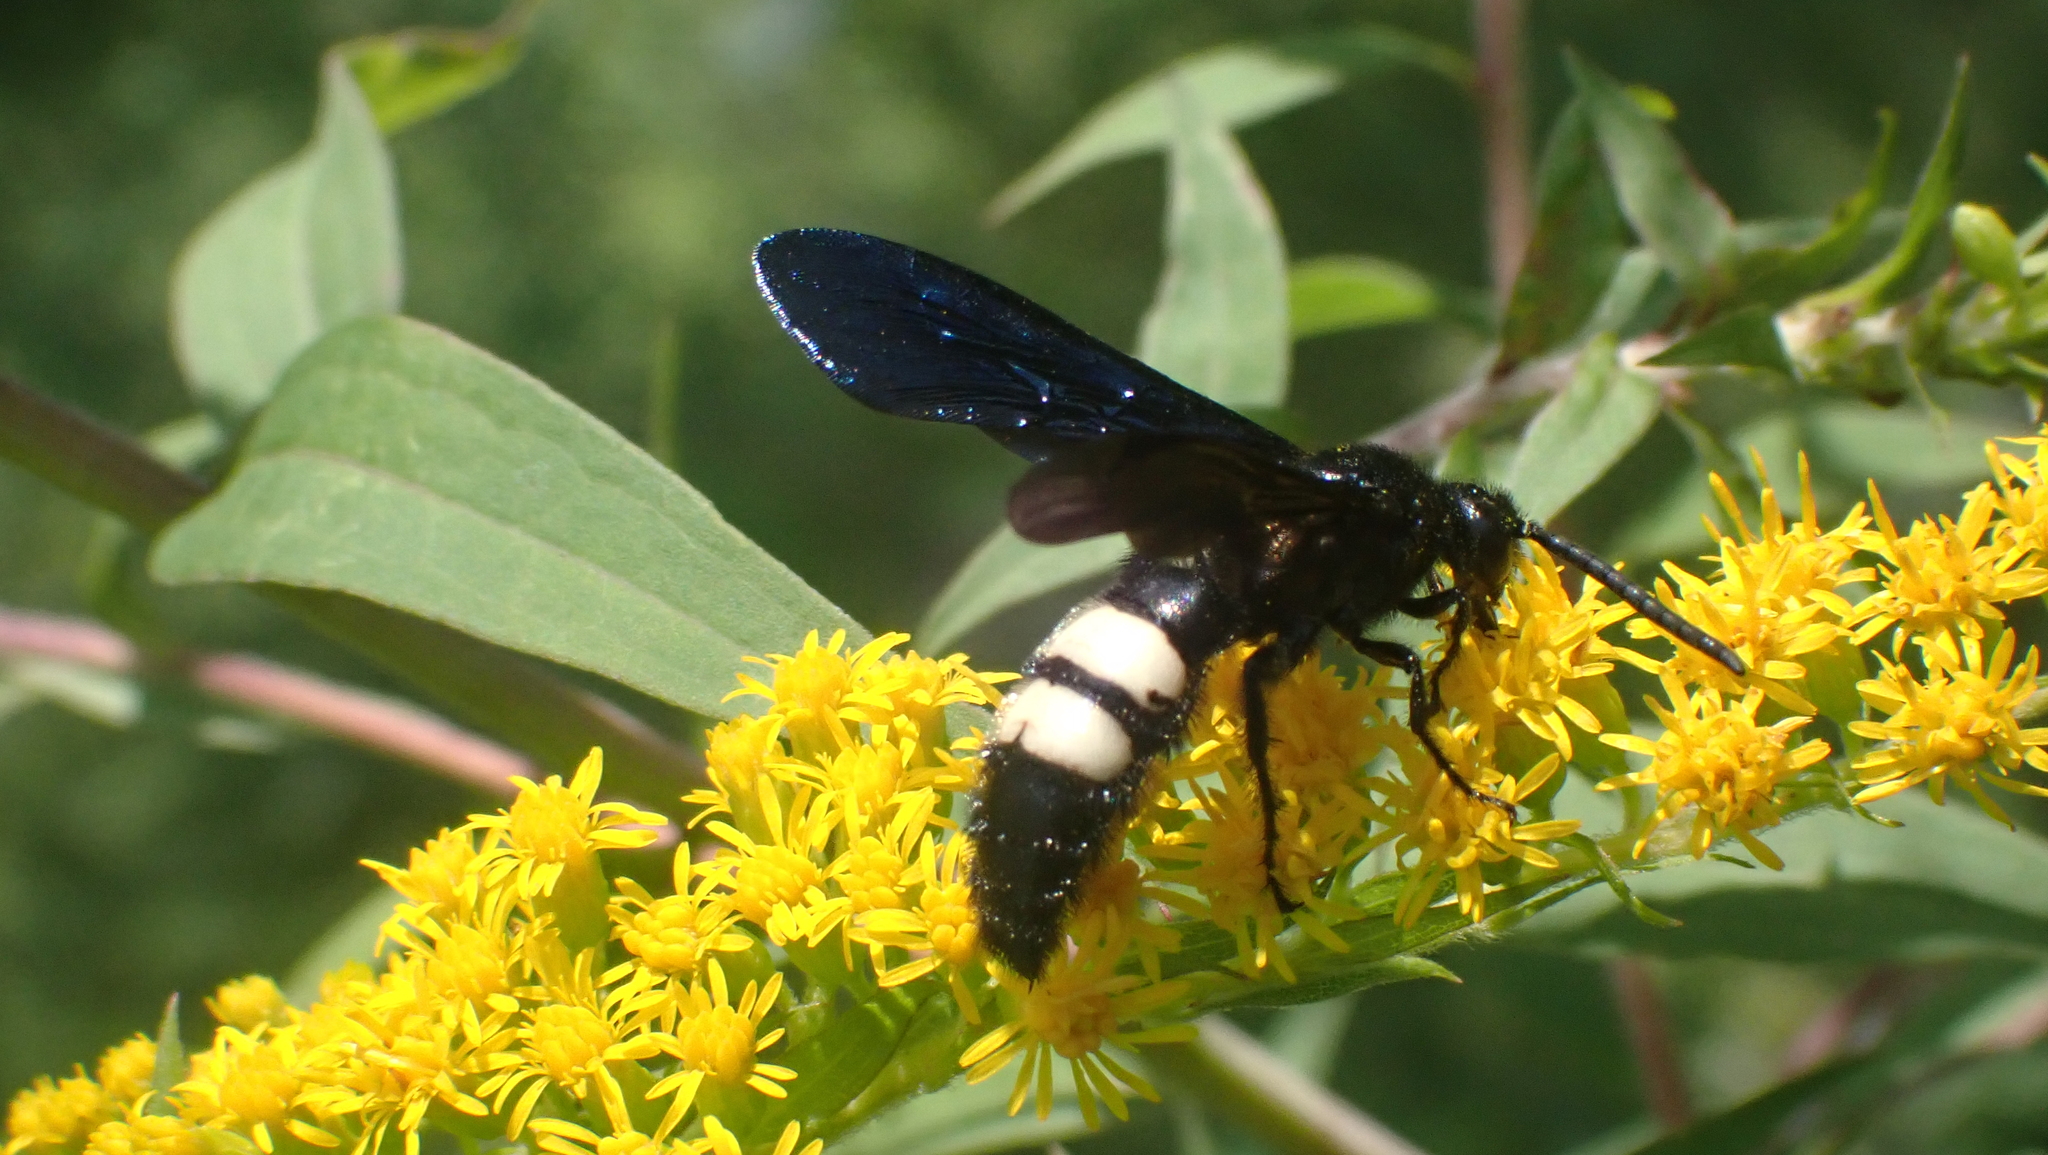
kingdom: Animalia
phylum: Arthropoda
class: Insecta
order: Hymenoptera
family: Scoliidae
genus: Scolia
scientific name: Scolia bicincta
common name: Double-banded scoliid wasp
